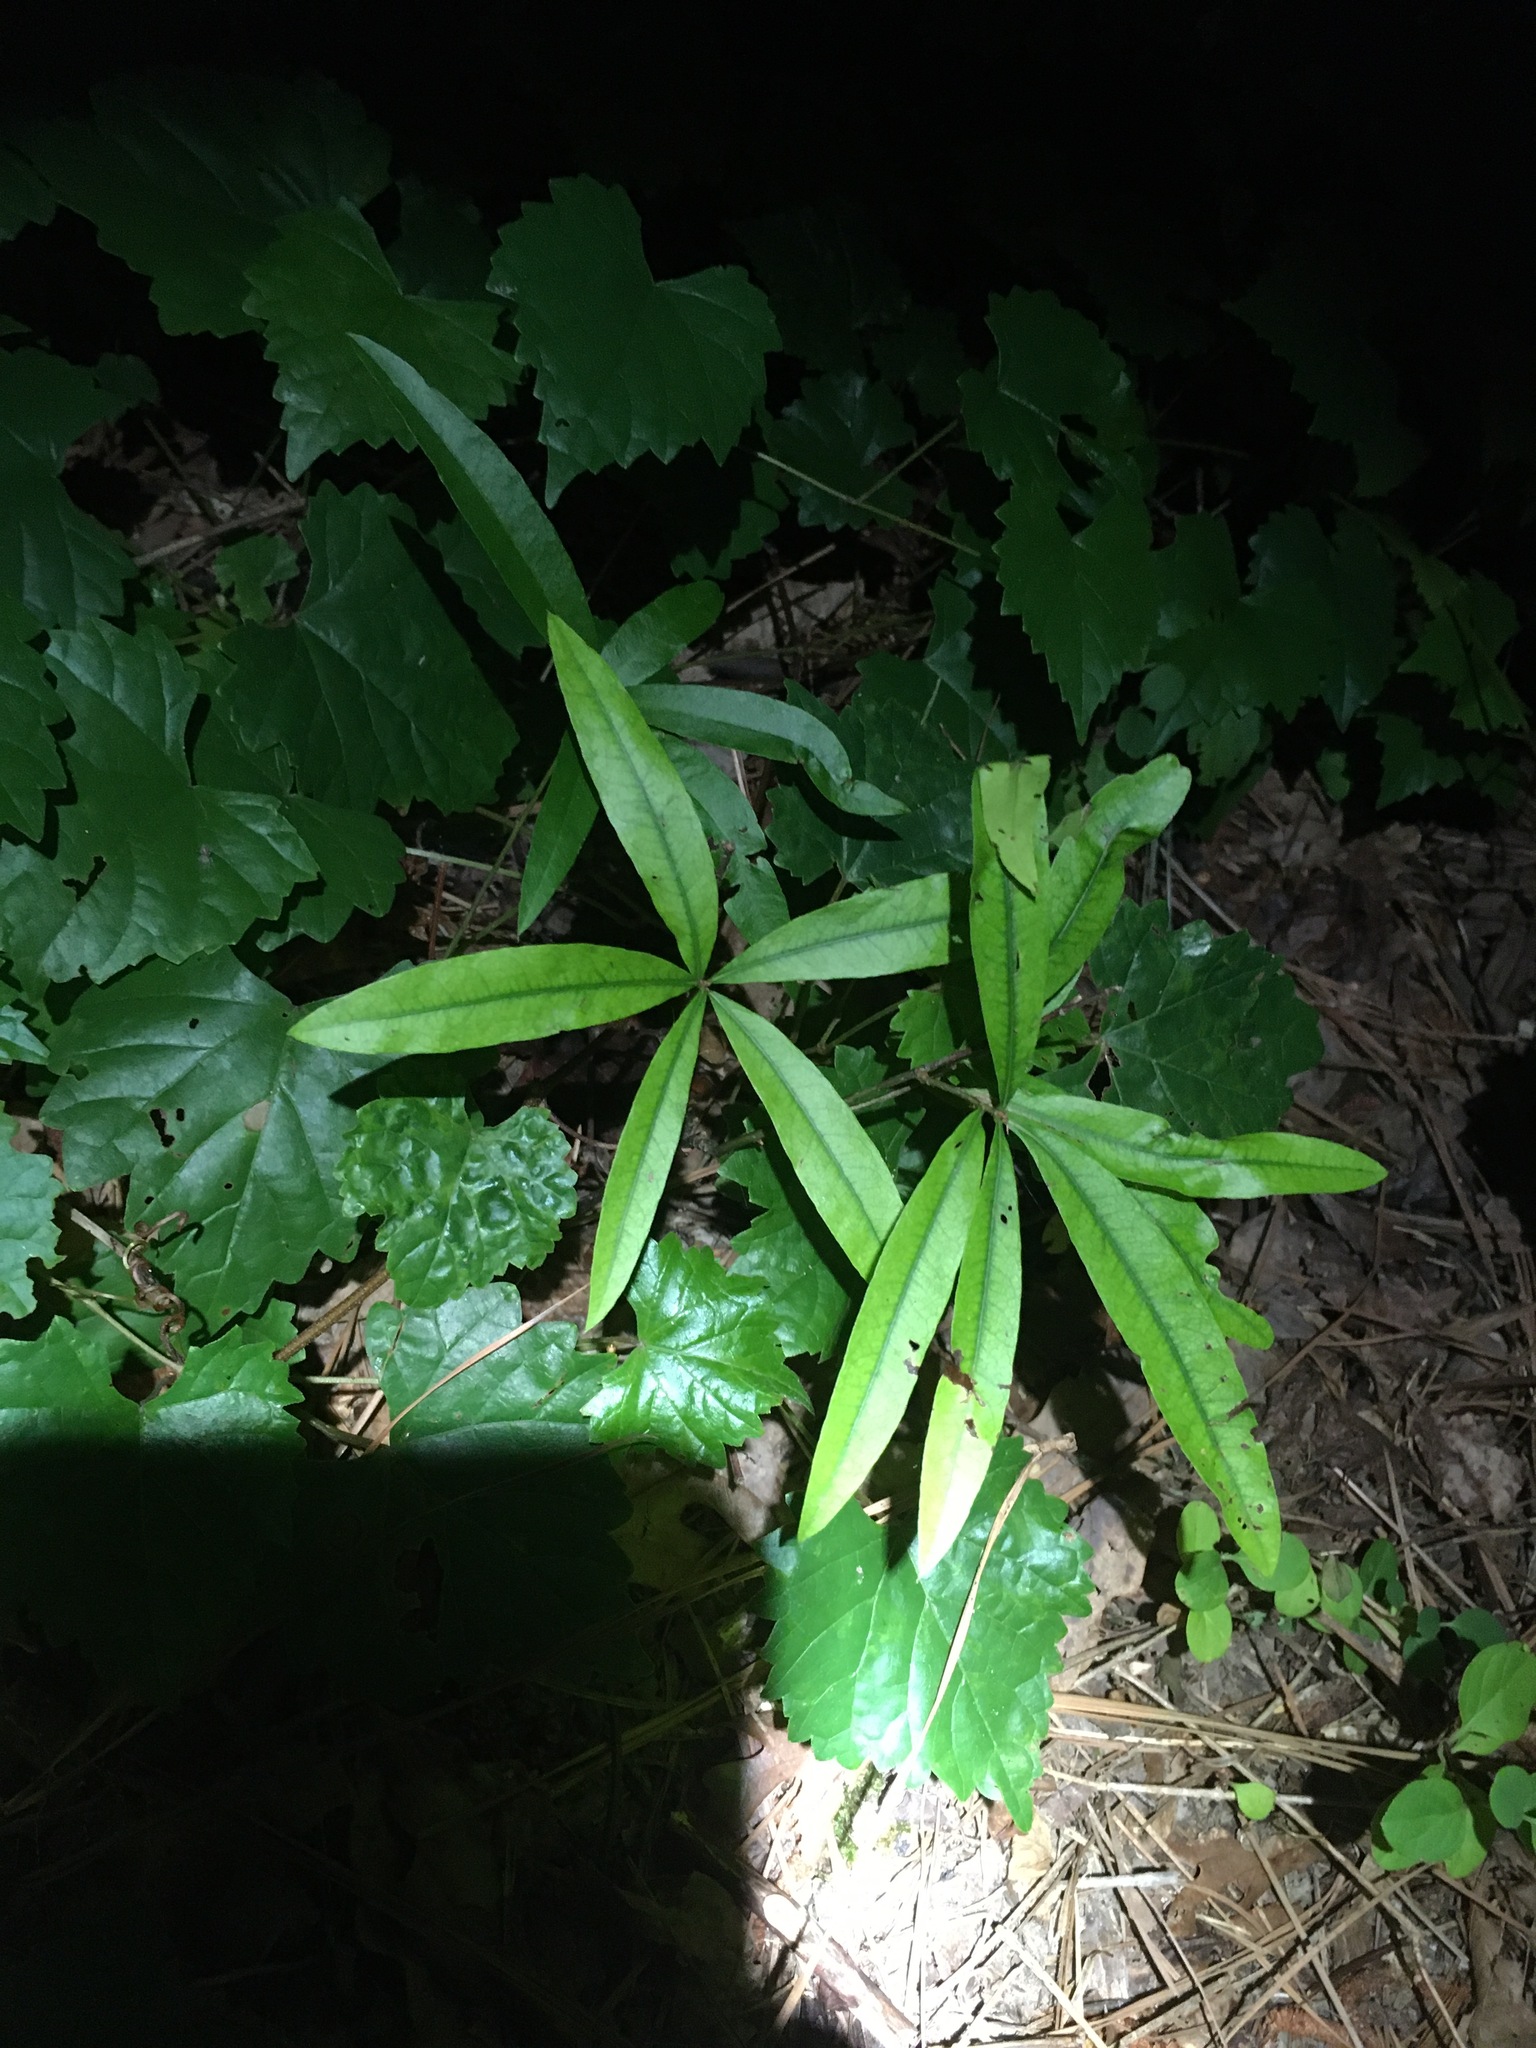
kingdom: Plantae
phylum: Tracheophyta
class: Magnoliopsida
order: Fagales
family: Fagaceae
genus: Quercus
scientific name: Quercus phellos
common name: Willow oak
